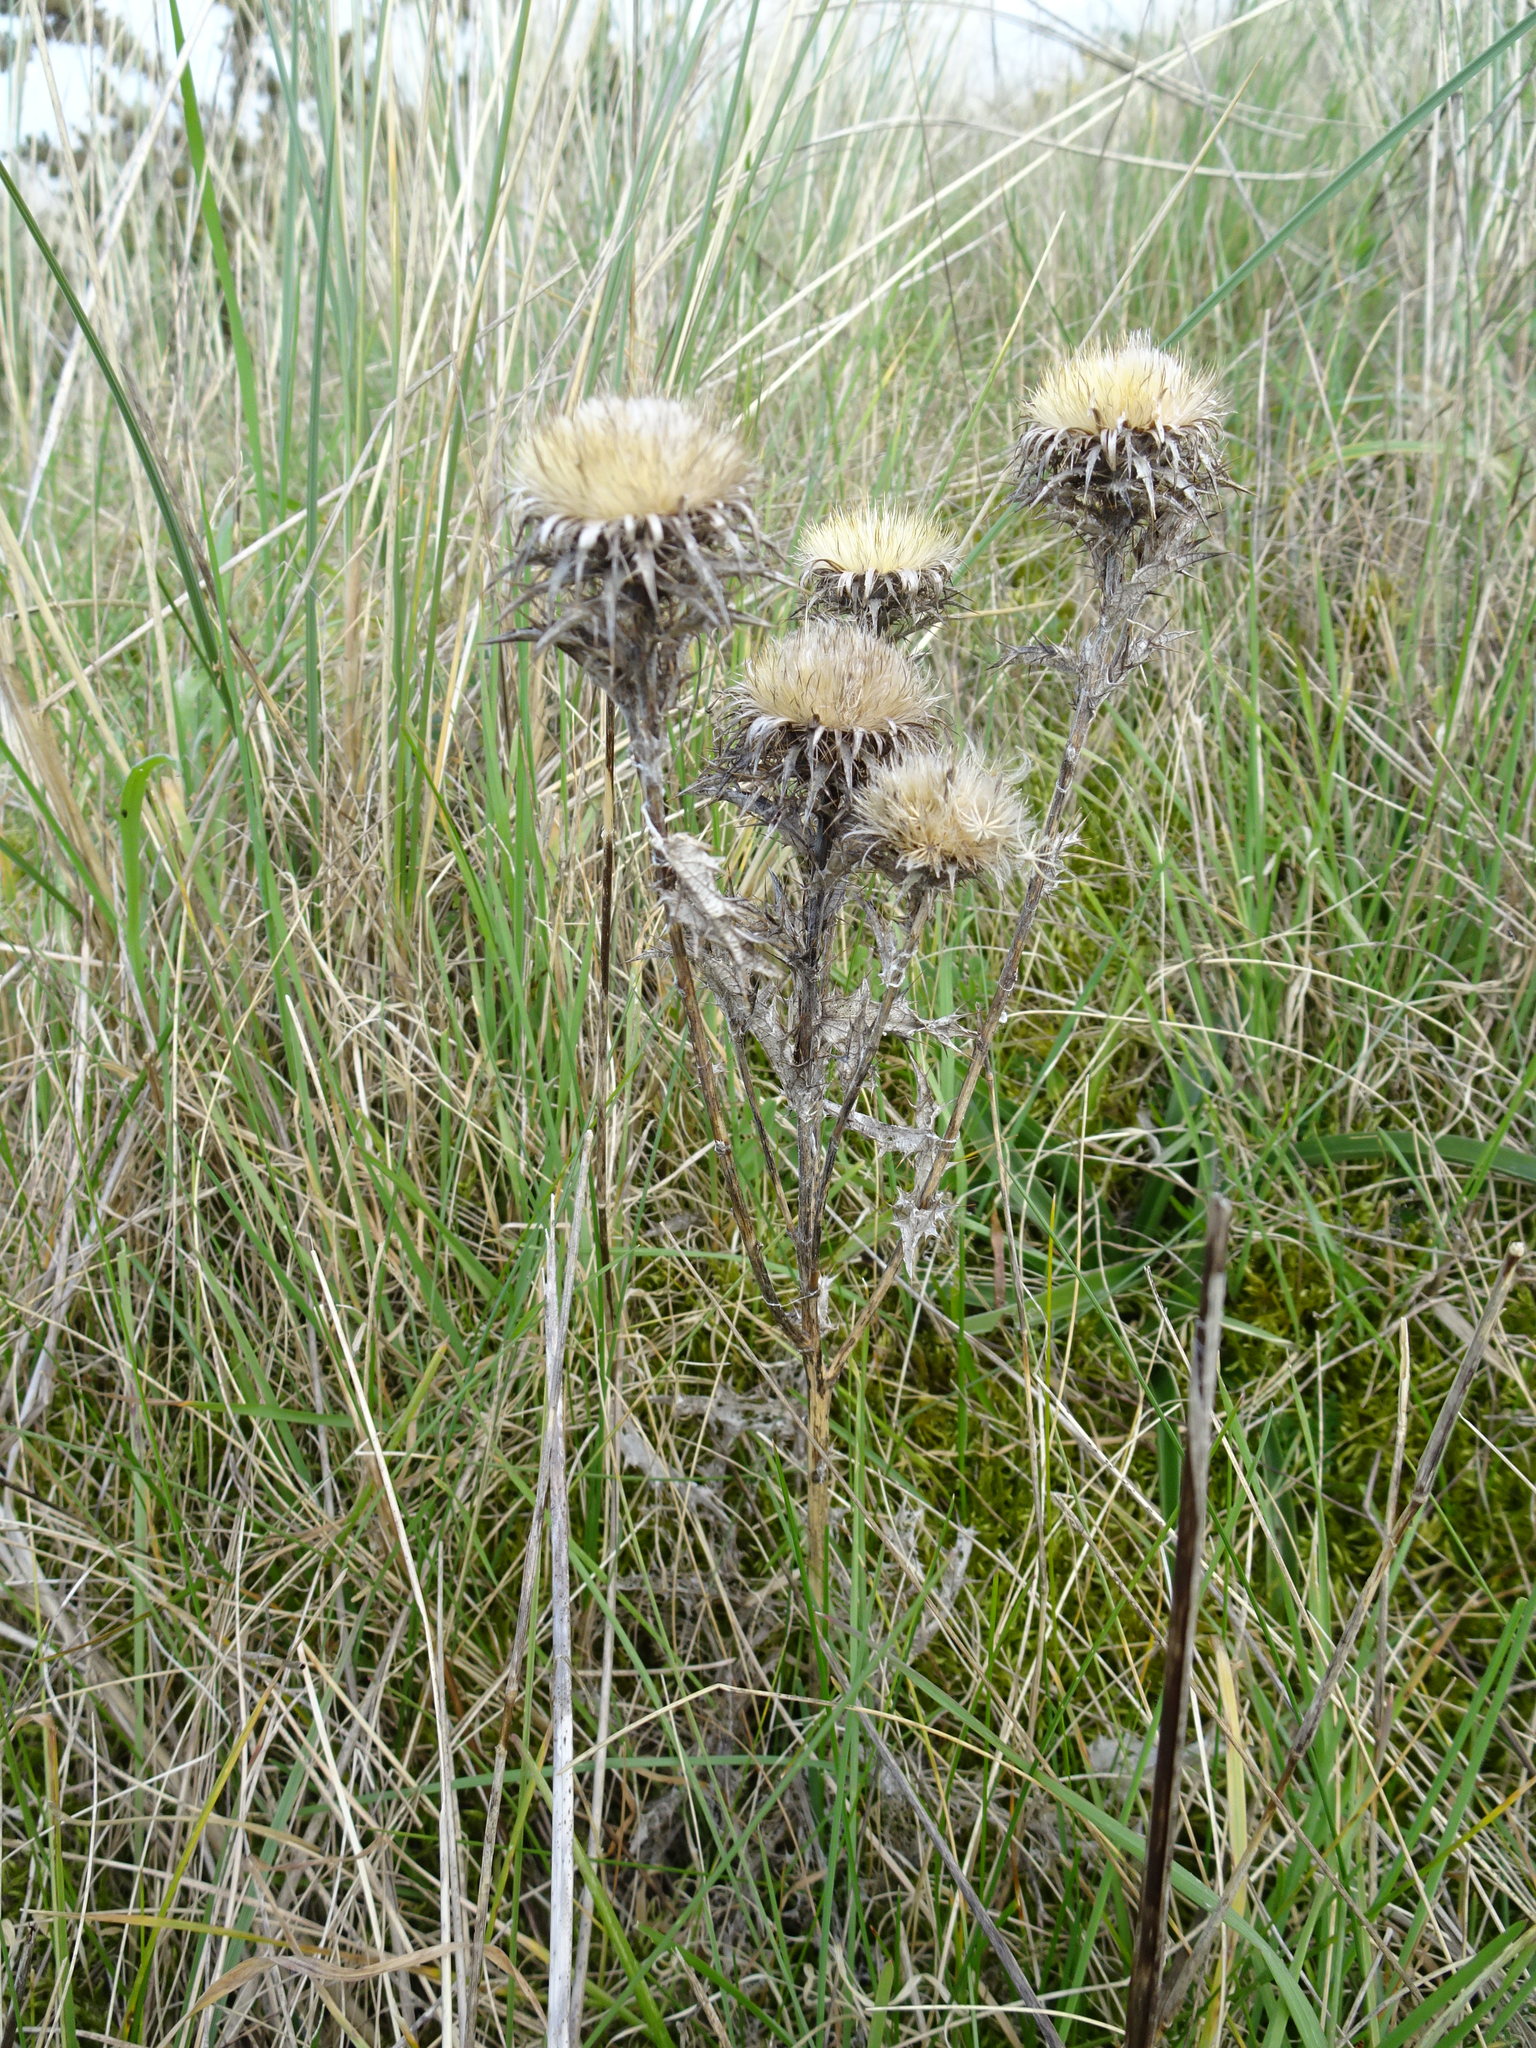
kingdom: Plantae
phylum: Tracheophyta
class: Magnoliopsida
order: Asterales
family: Asteraceae
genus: Carlina
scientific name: Carlina vulgaris
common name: Carline thistle
